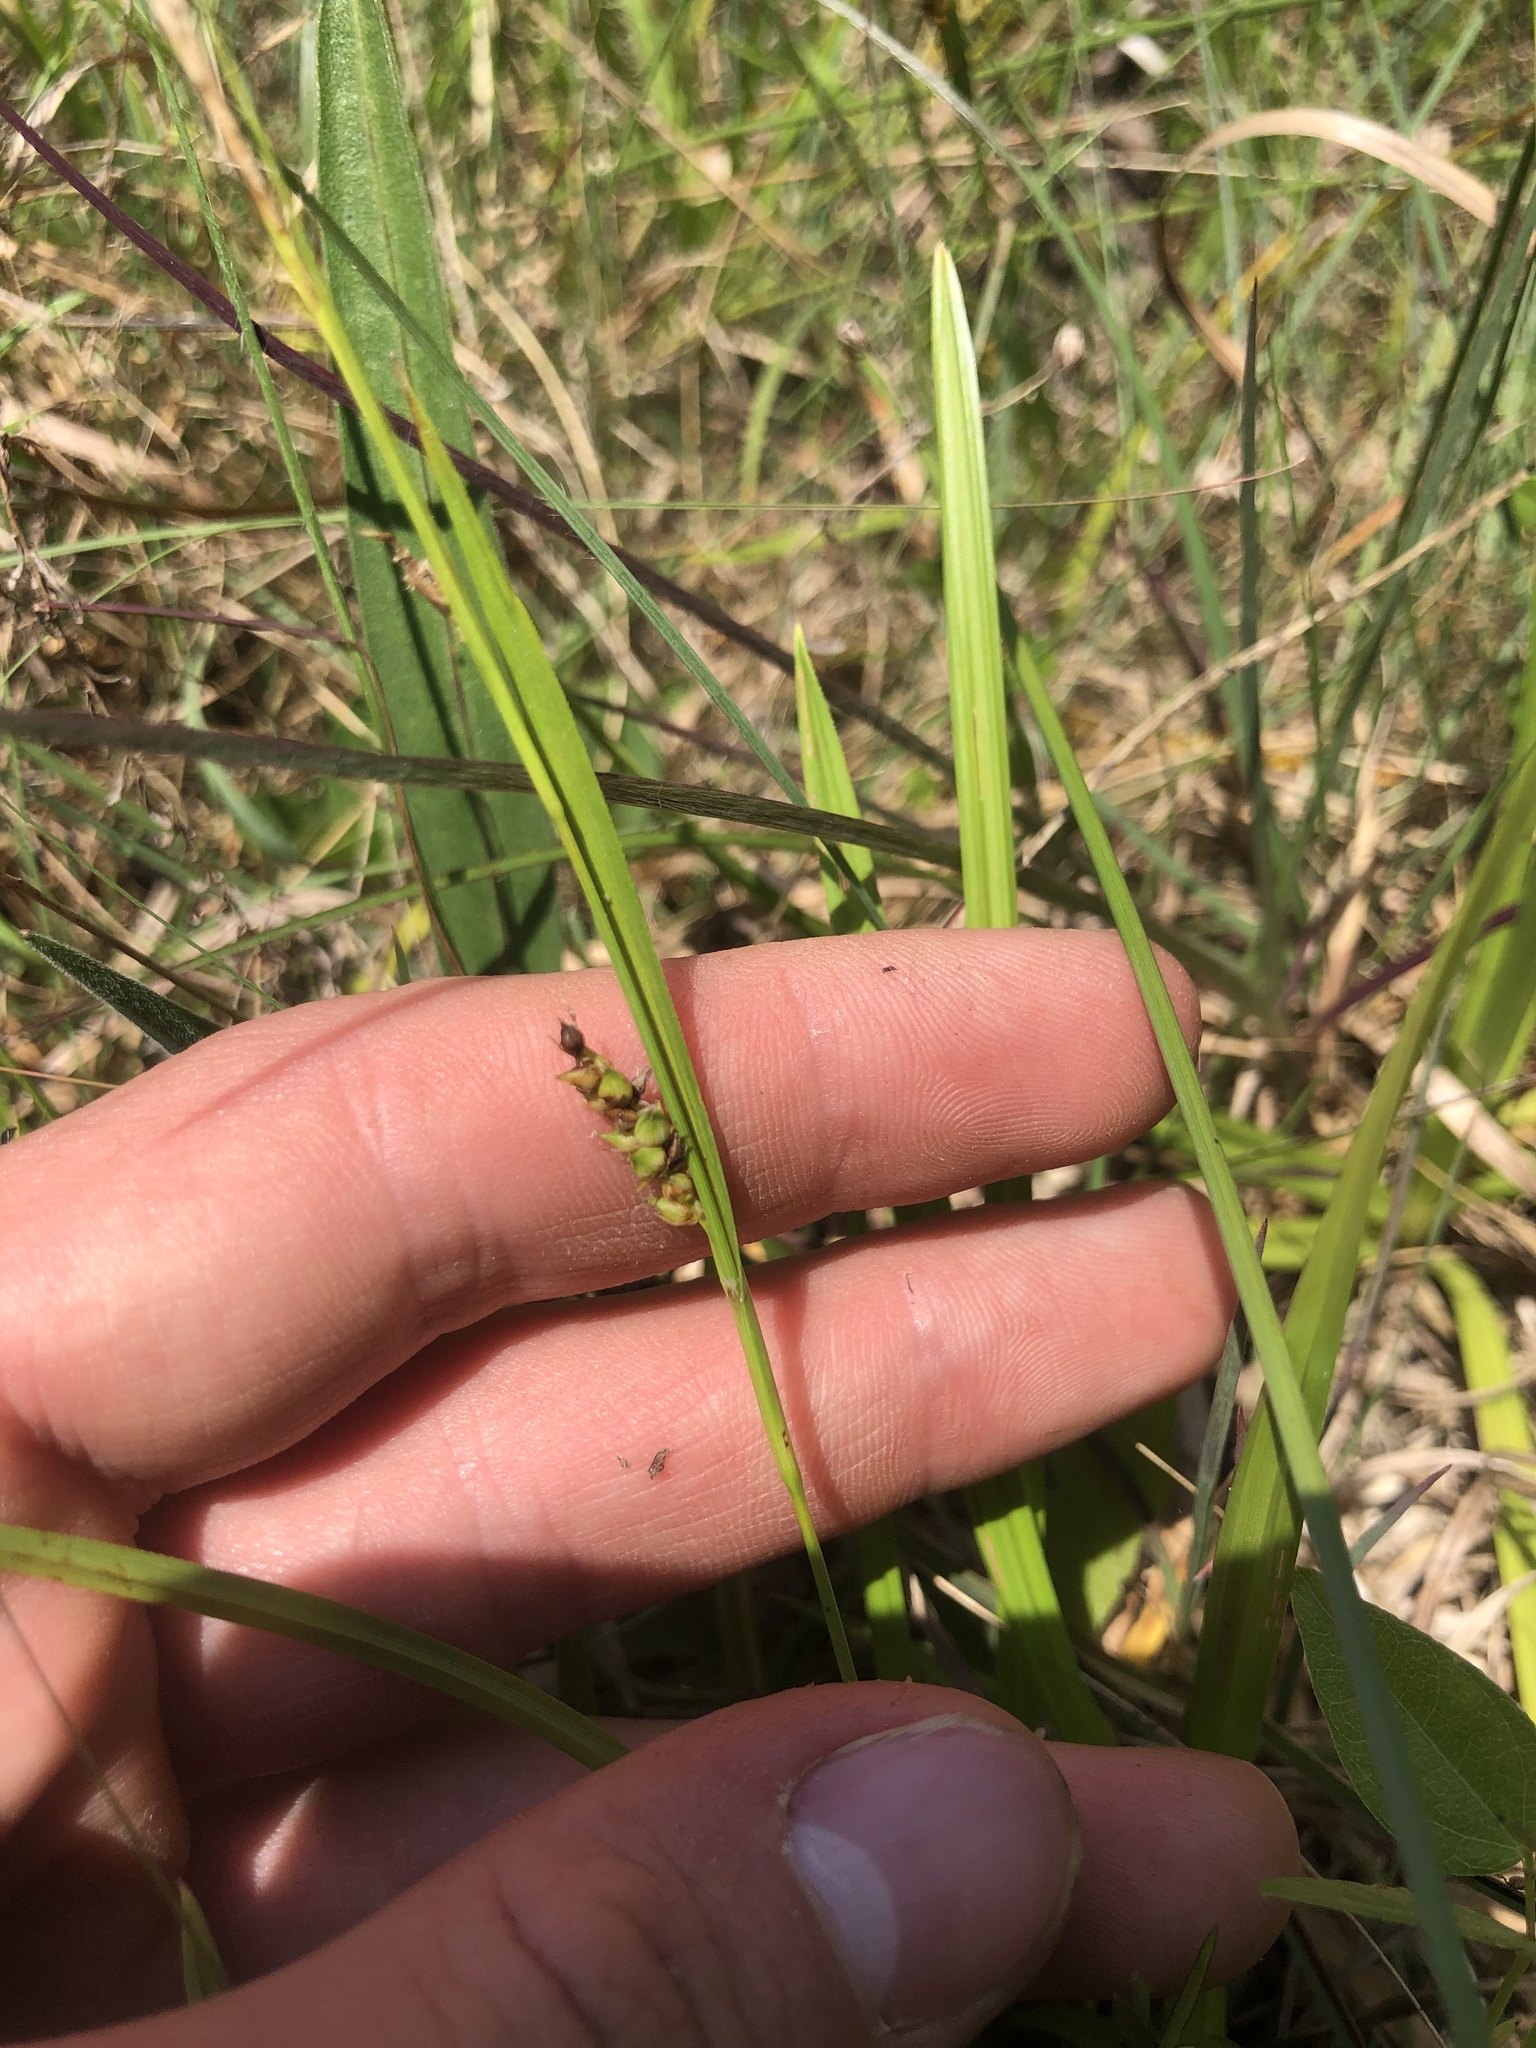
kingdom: Plantae
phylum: Tracheophyta
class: Liliopsida
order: Poales
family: Cyperaceae
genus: Carex
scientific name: Carex microdonta
